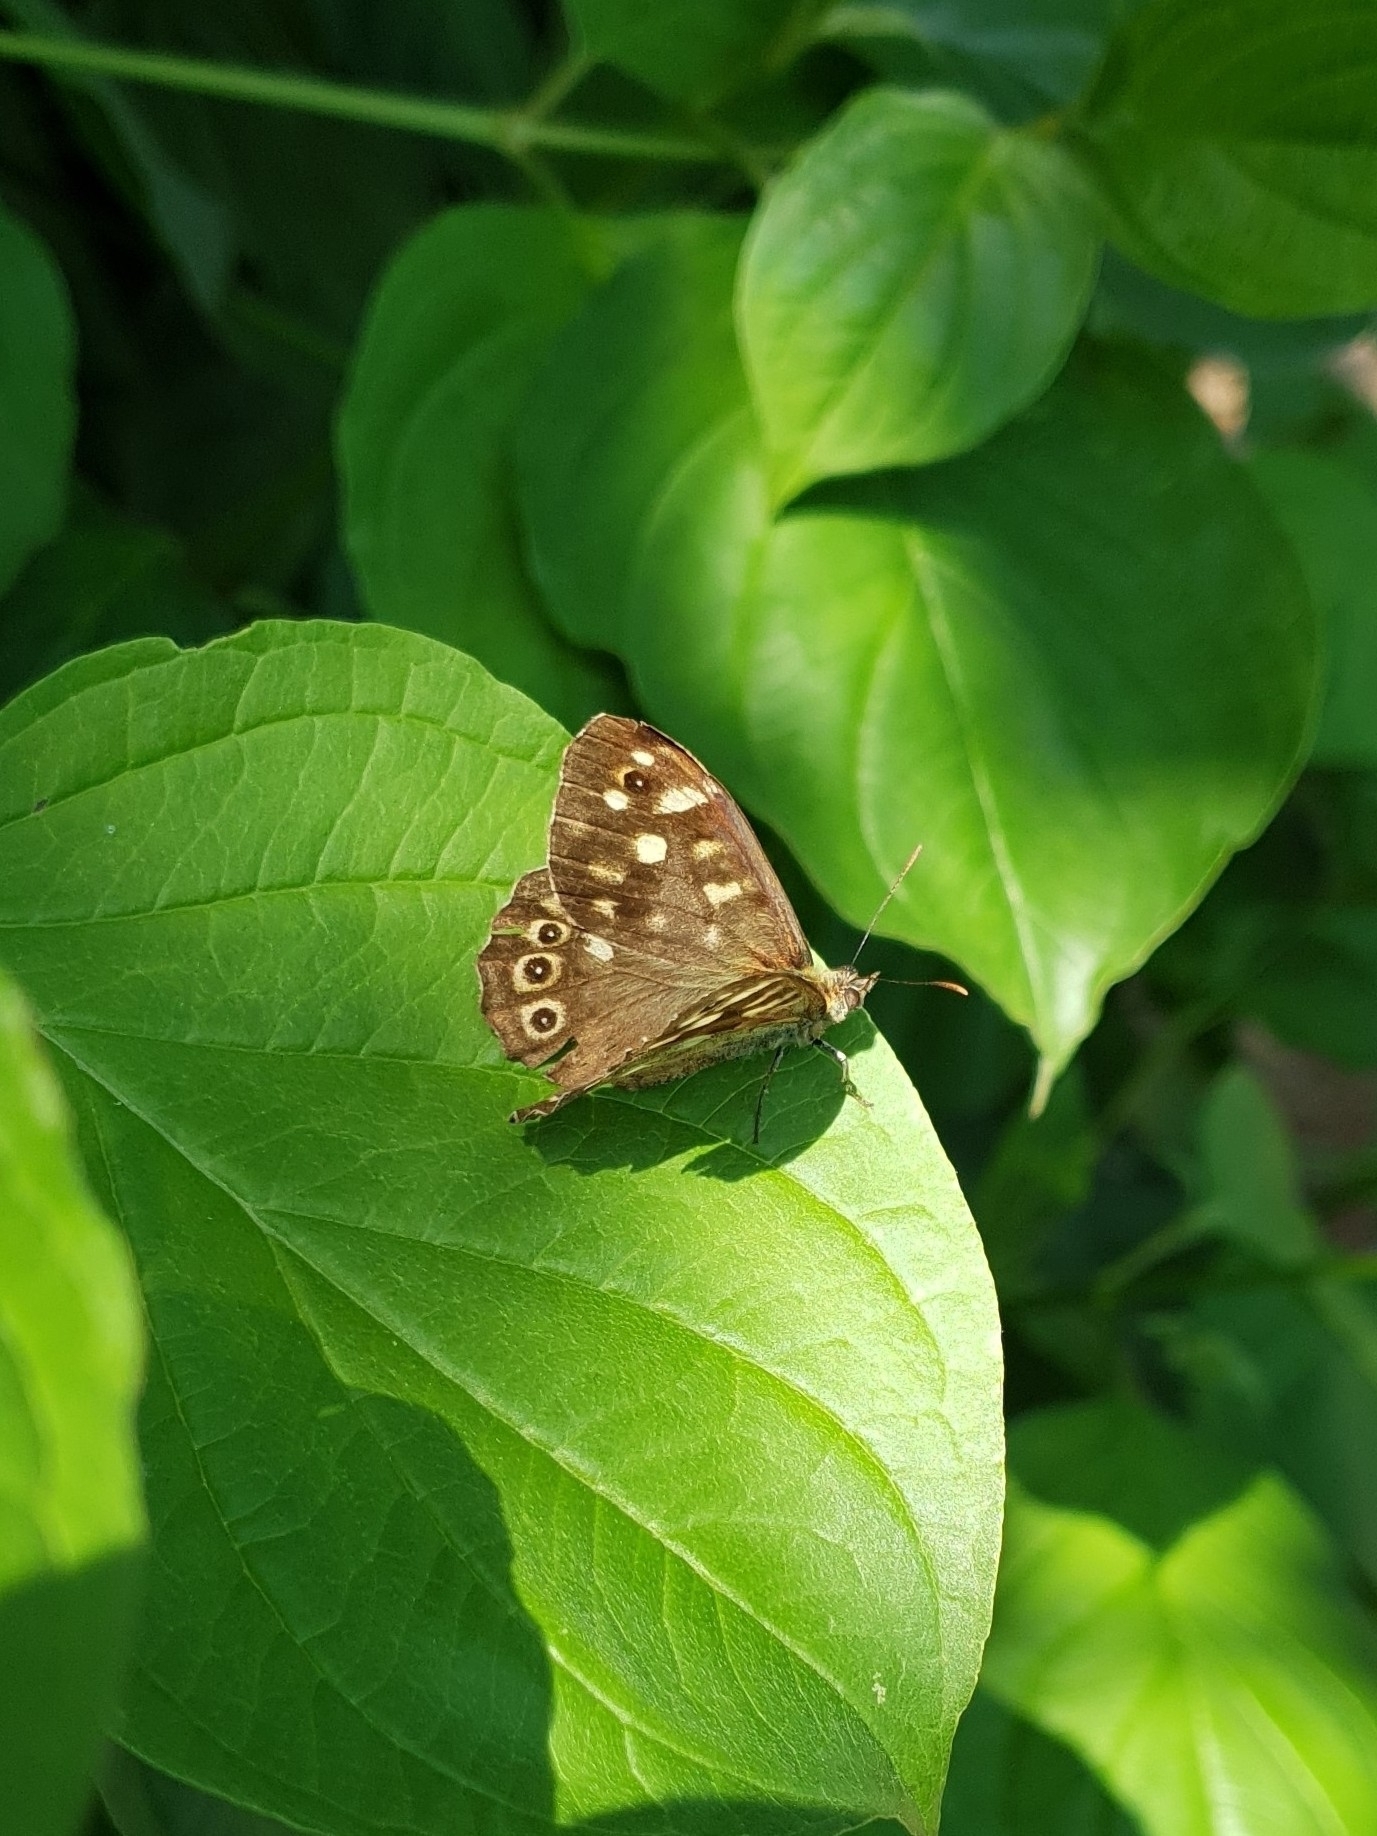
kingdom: Animalia
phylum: Arthropoda
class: Insecta
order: Lepidoptera
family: Nymphalidae
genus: Pararge
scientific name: Pararge aegeria
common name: Speckled wood
